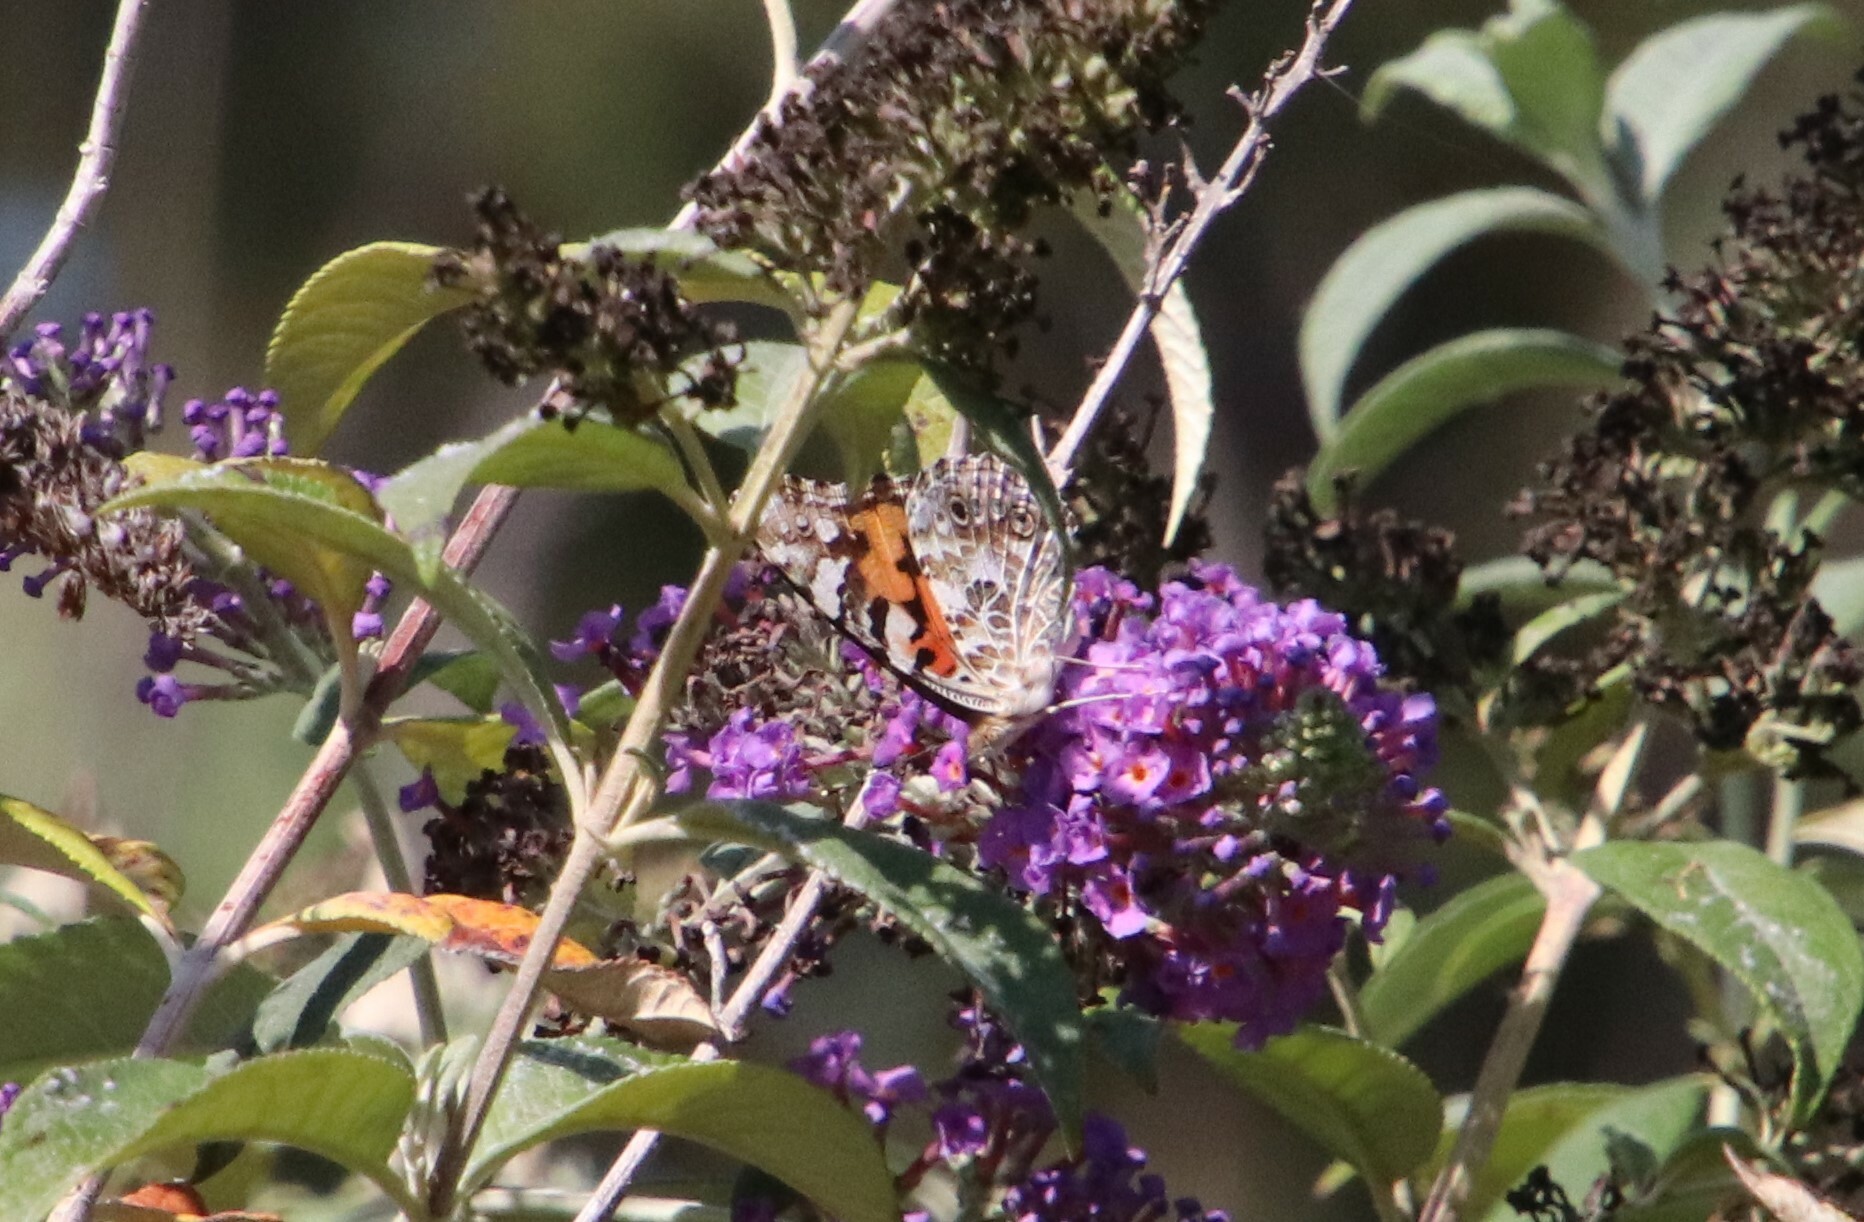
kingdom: Animalia
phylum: Arthropoda
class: Insecta
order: Lepidoptera
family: Nymphalidae
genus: Vanessa
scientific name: Vanessa cardui
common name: Painted lady
